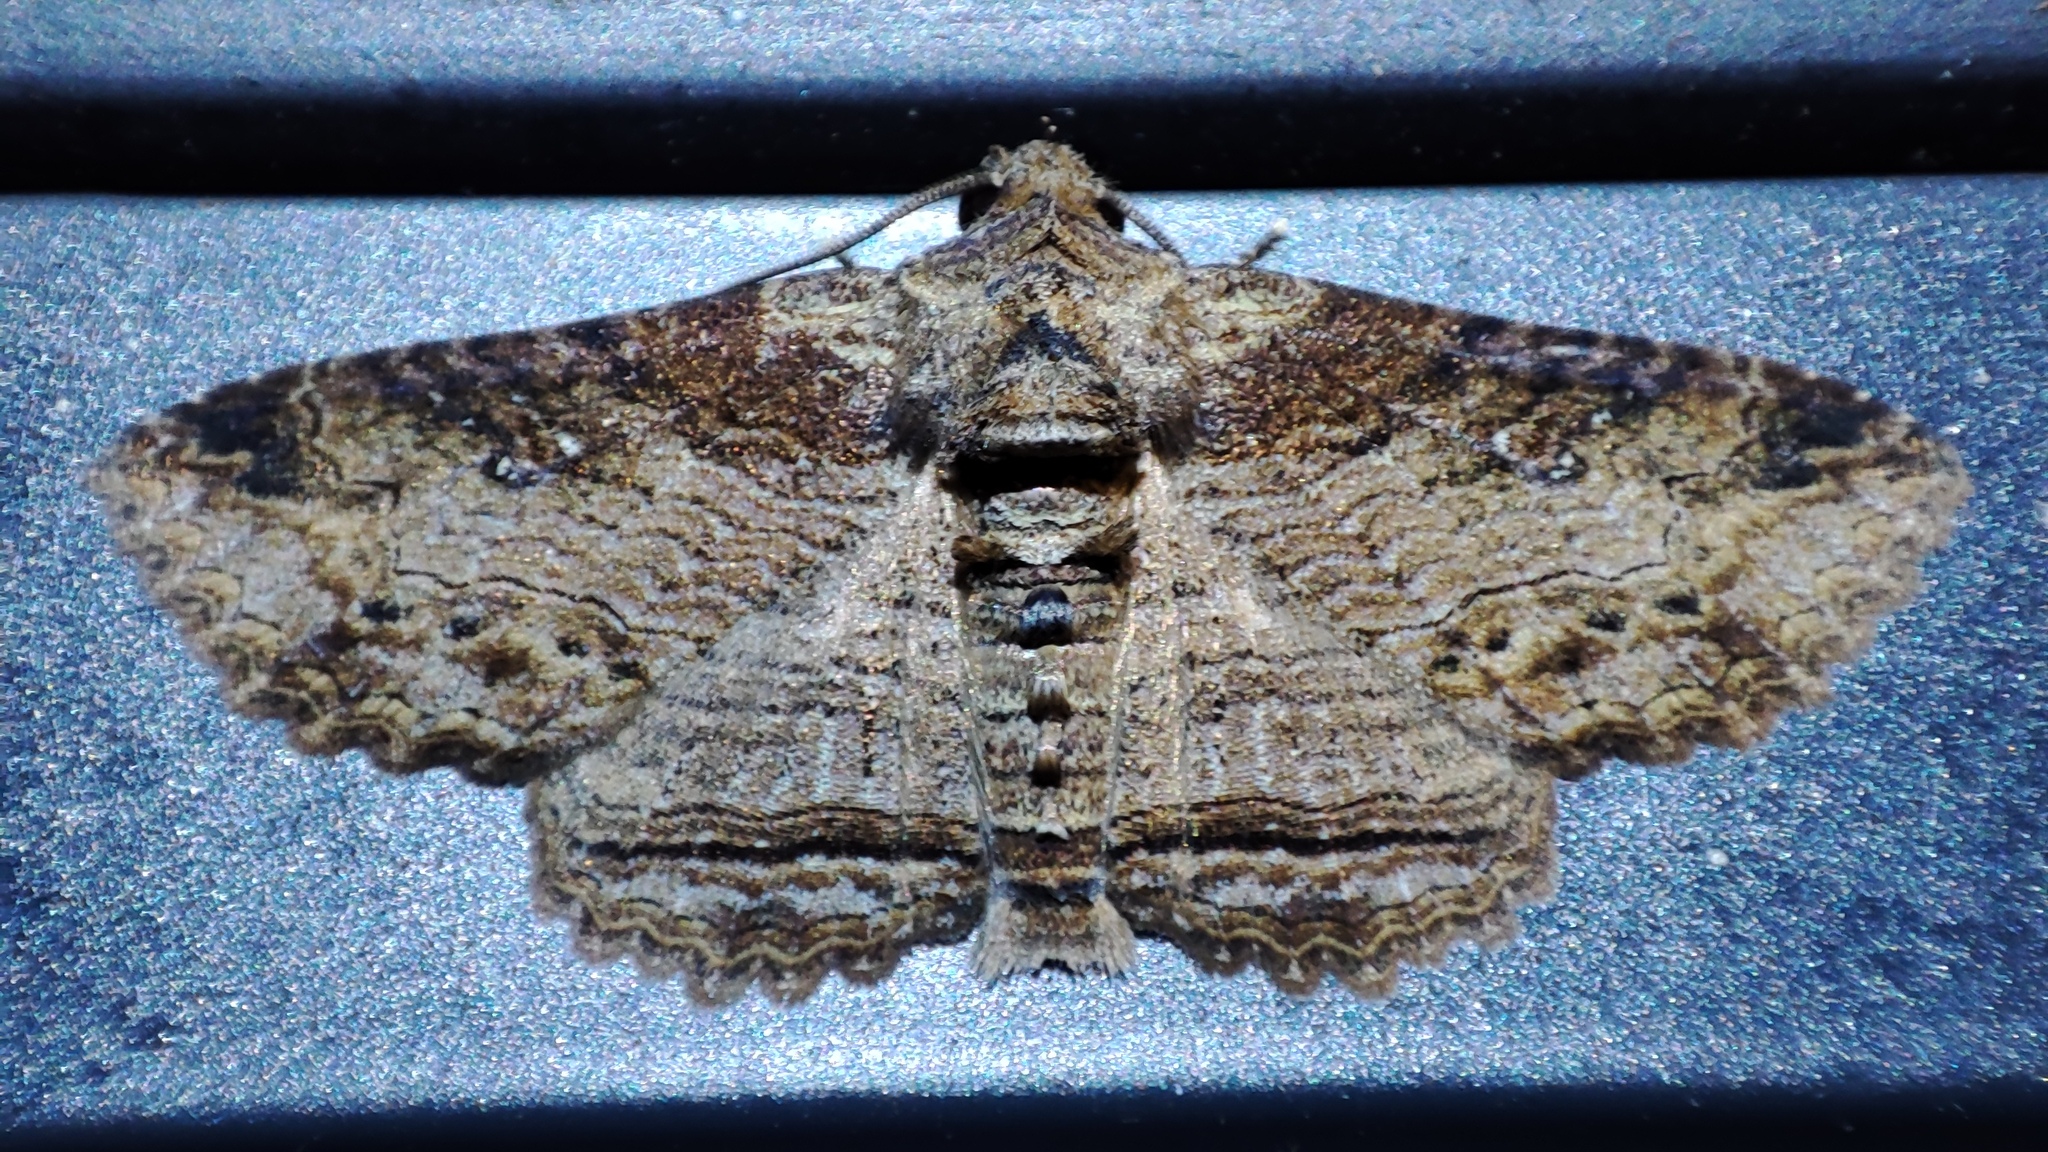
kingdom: Animalia
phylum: Arthropoda
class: Insecta
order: Lepidoptera
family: Erebidae
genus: Pericyma
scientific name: Pericyma mendax
